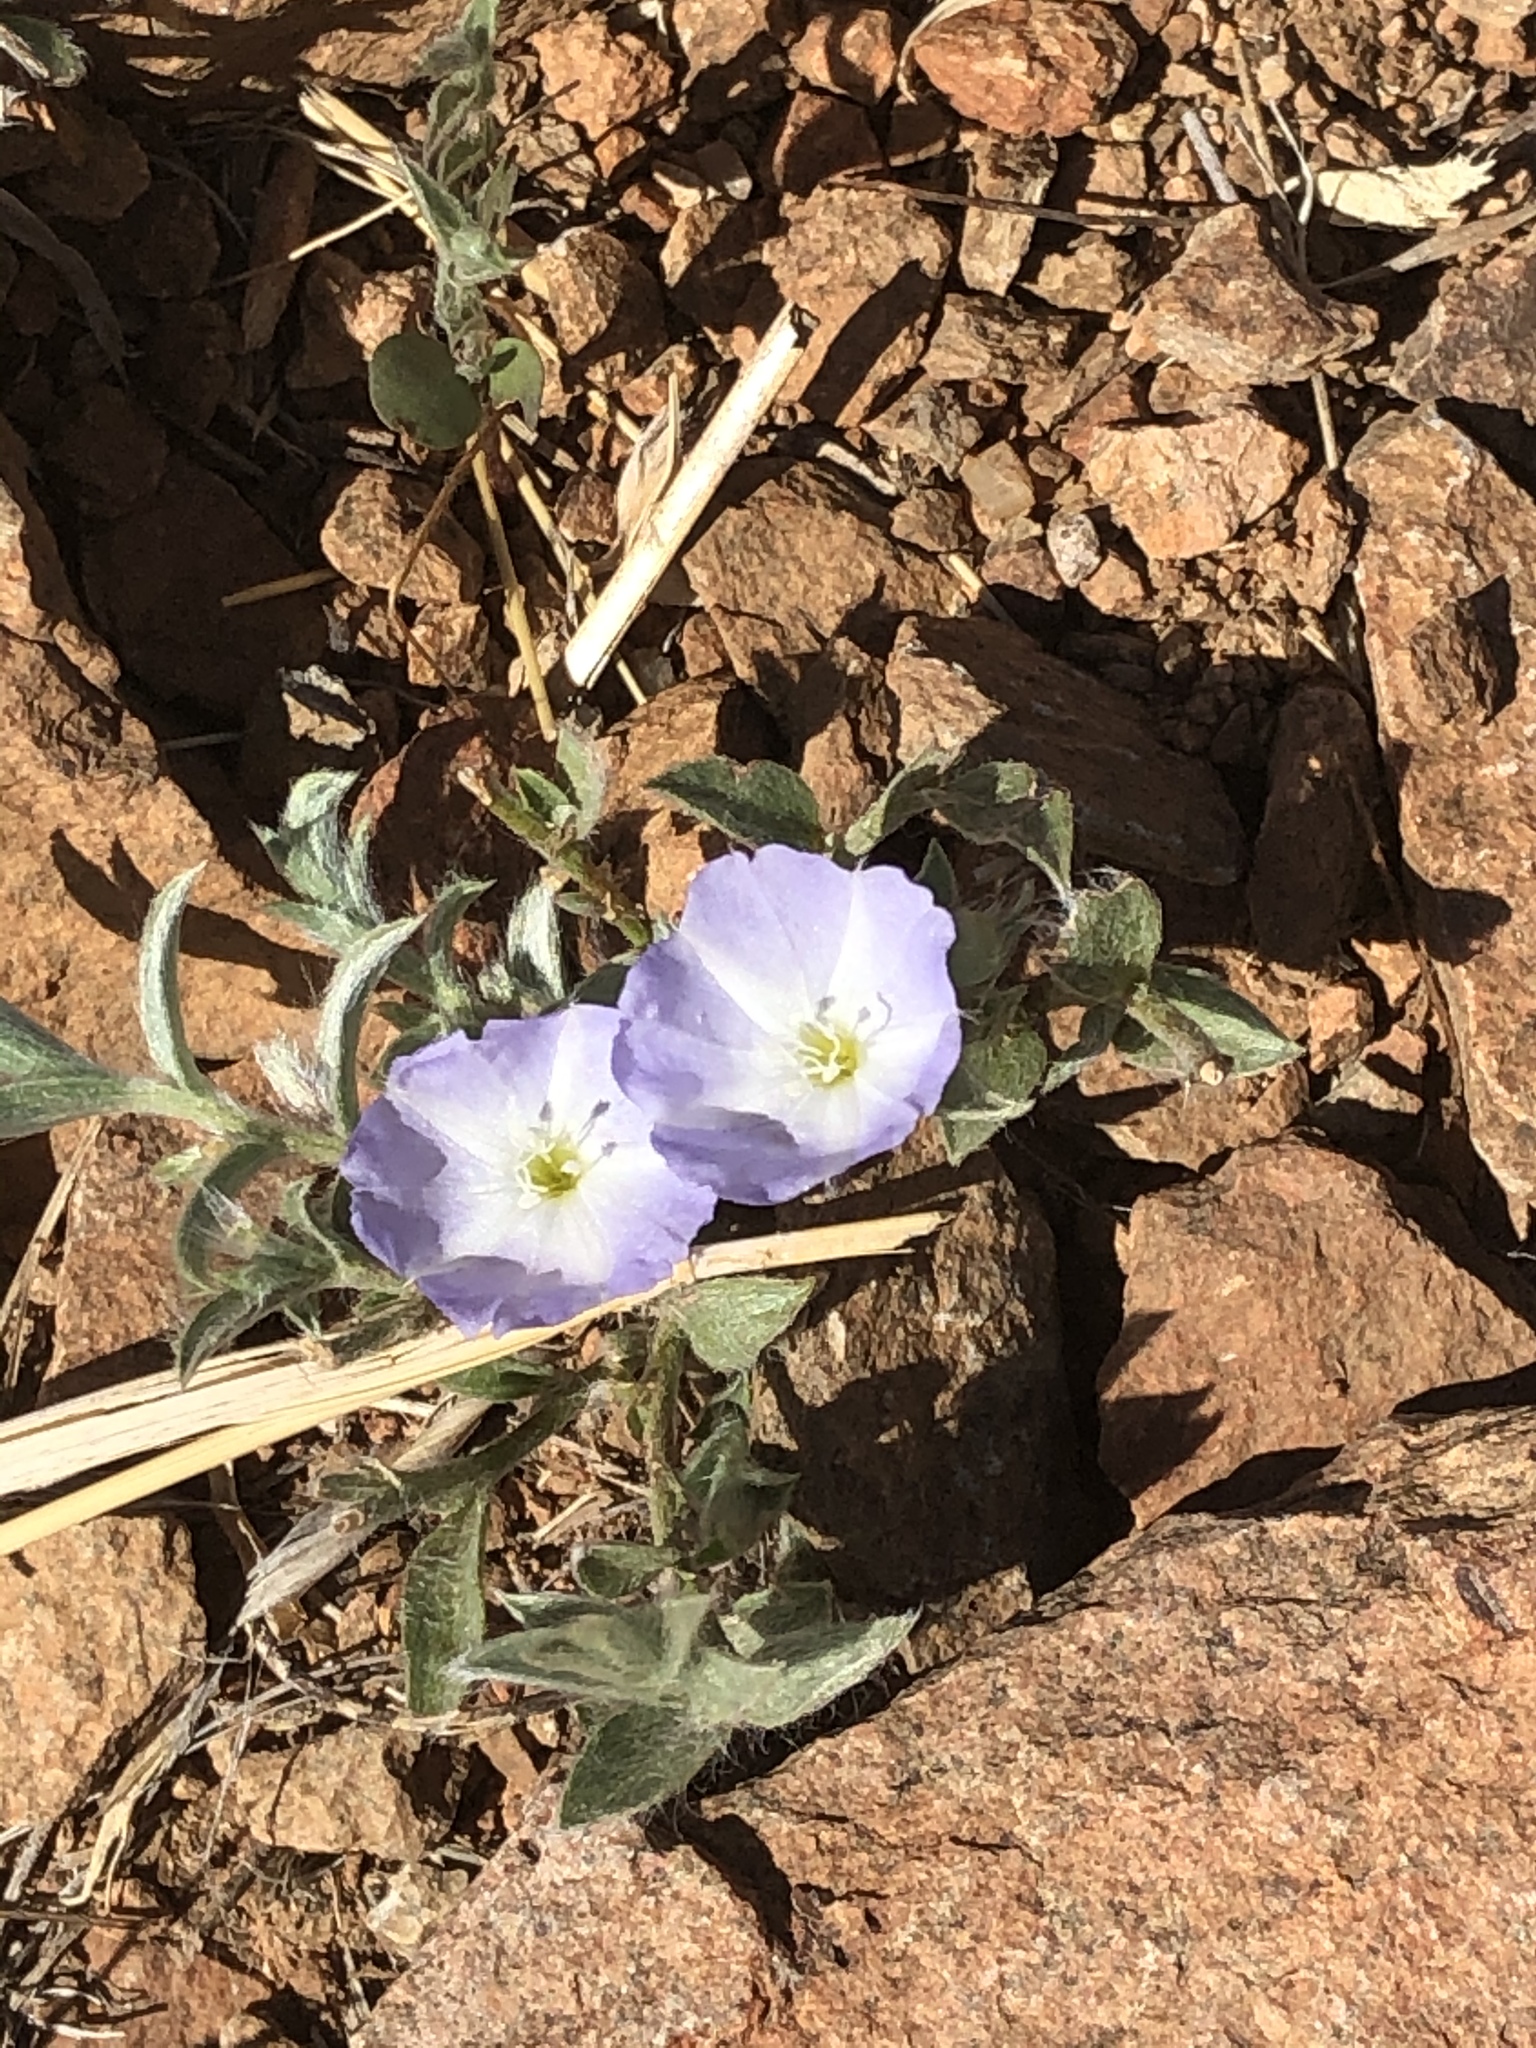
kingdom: Plantae
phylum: Tracheophyta
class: Magnoliopsida
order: Solanales
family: Convolvulaceae
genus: Evolvulus
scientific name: Evolvulus nuttallianus
